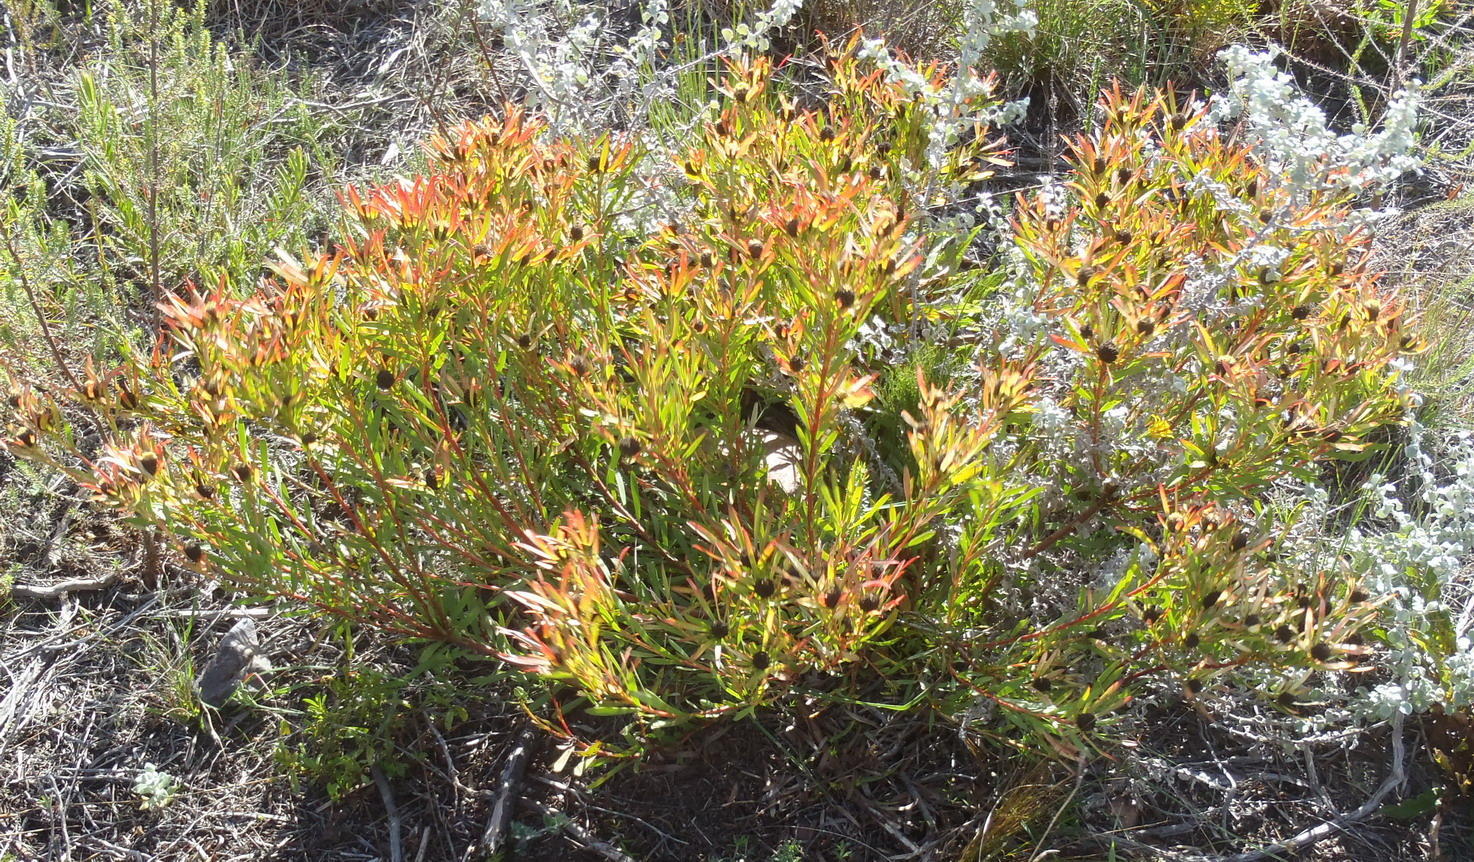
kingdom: Plantae
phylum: Tracheophyta
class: Magnoliopsida
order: Proteales
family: Proteaceae
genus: Leucadendron
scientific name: Leucadendron salignum
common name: Common sunshine conebush
